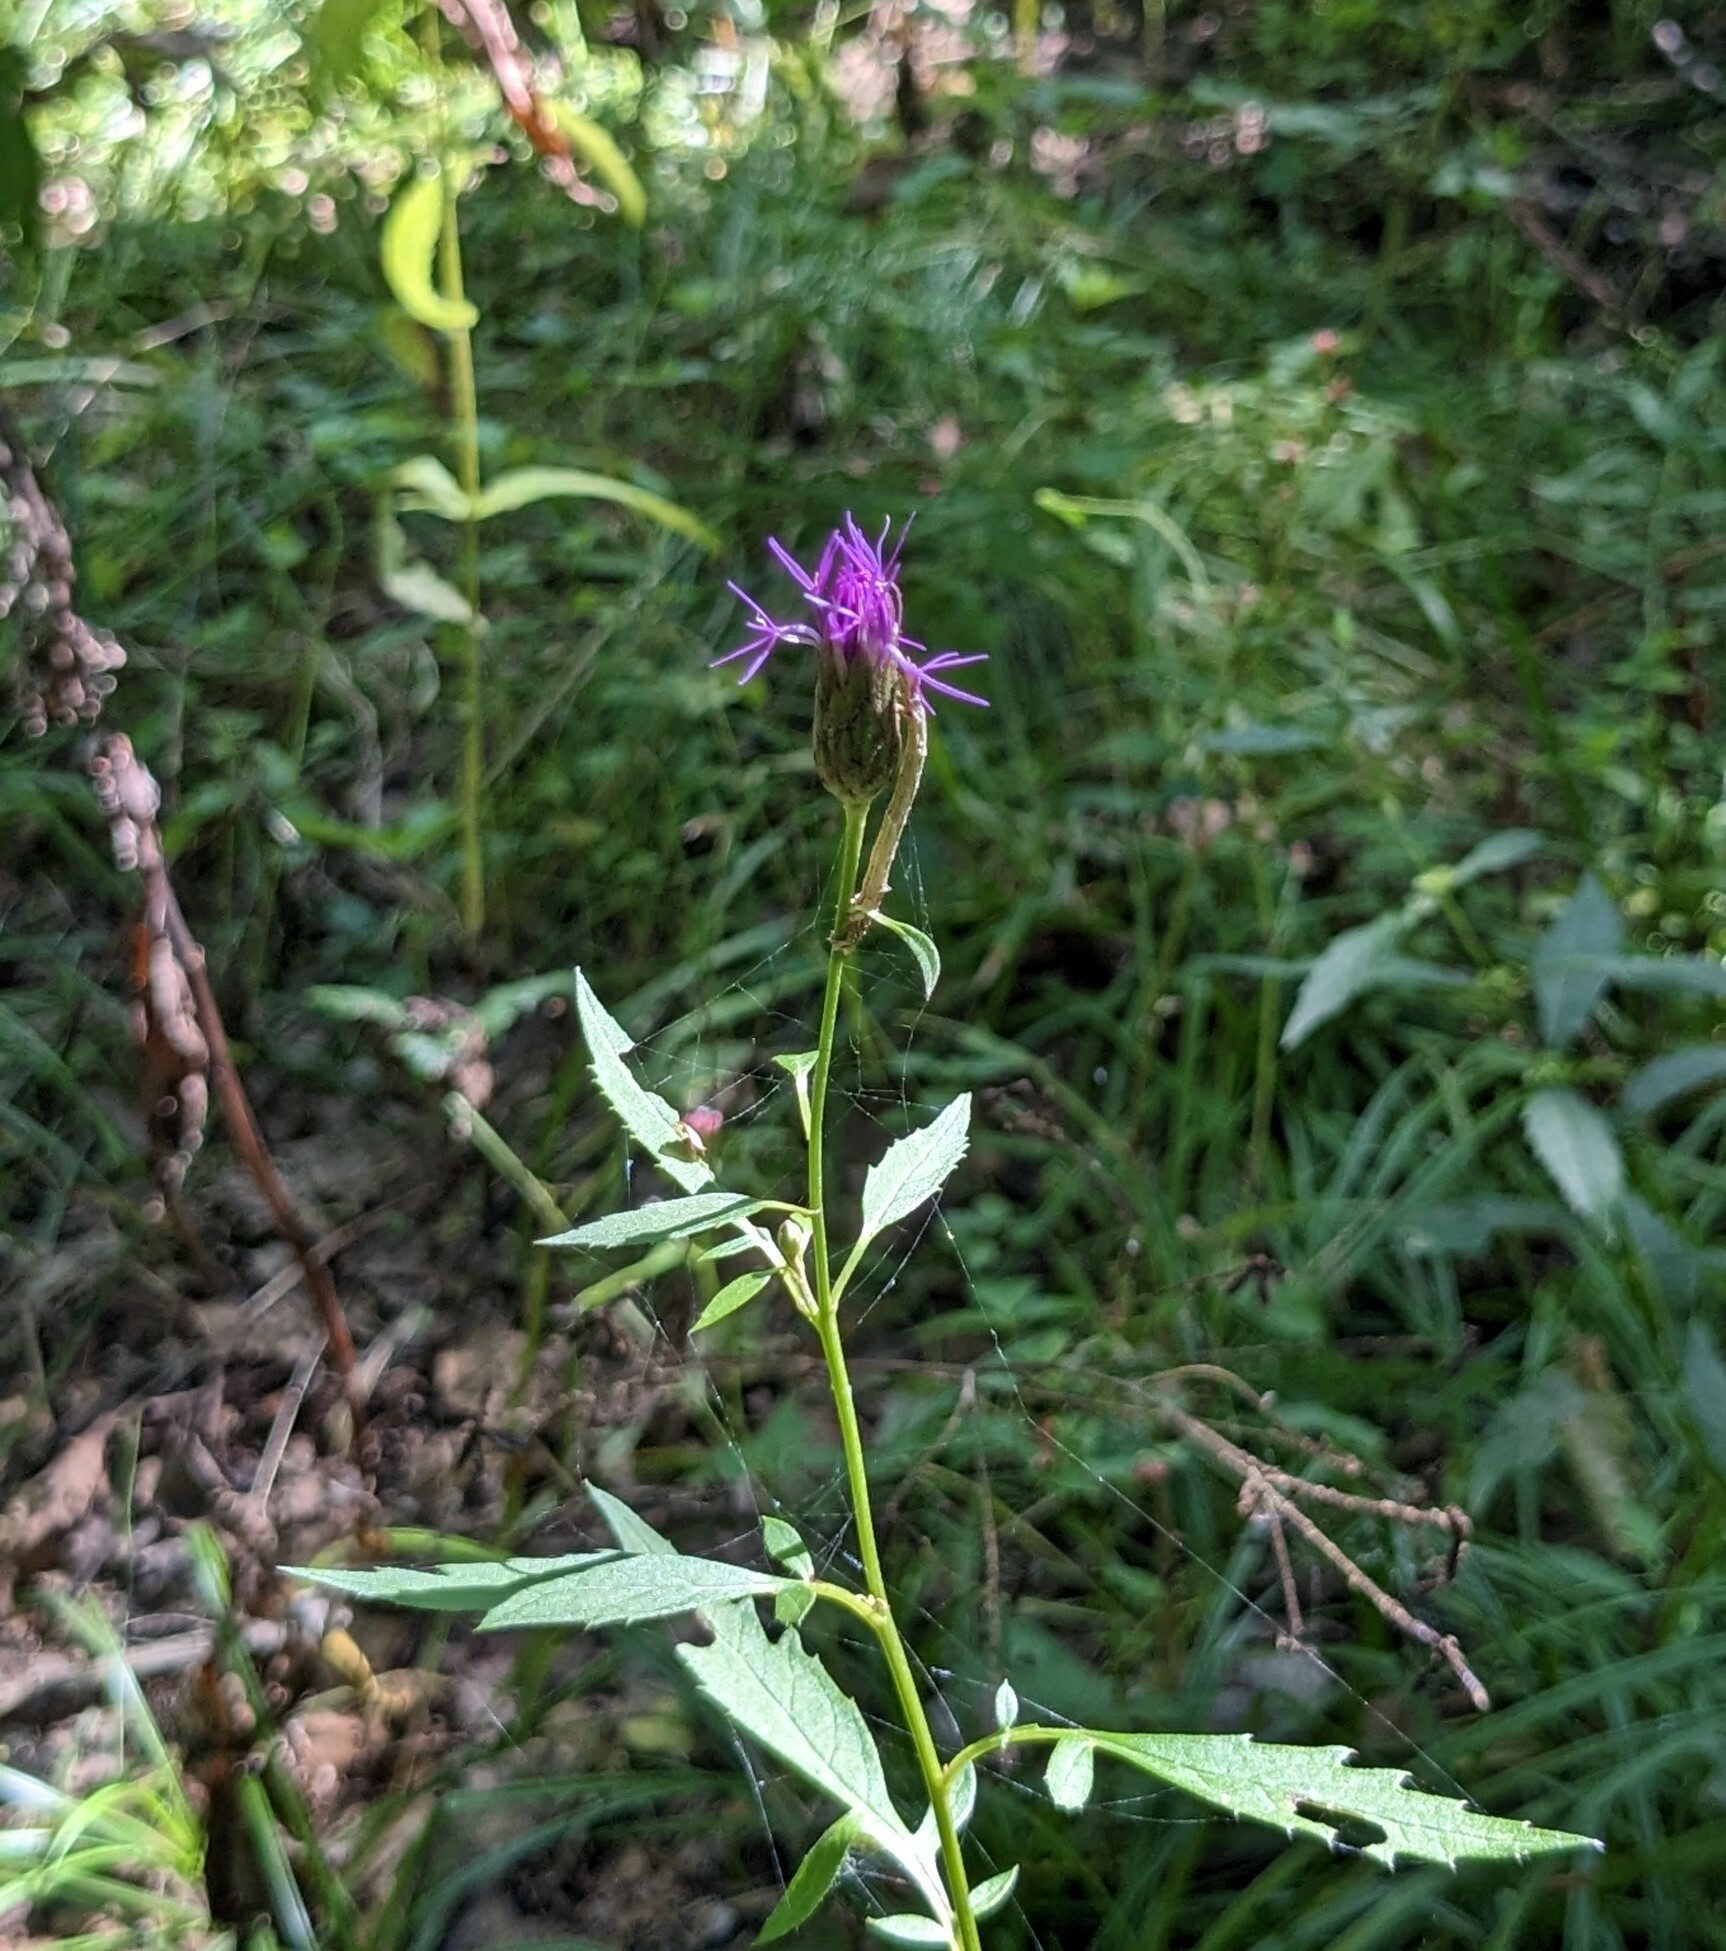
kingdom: Plantae
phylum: Tracheophyta
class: Magnoliopsida
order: Asterales
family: Asteraceae
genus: Serratula
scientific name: Serratula coronata
